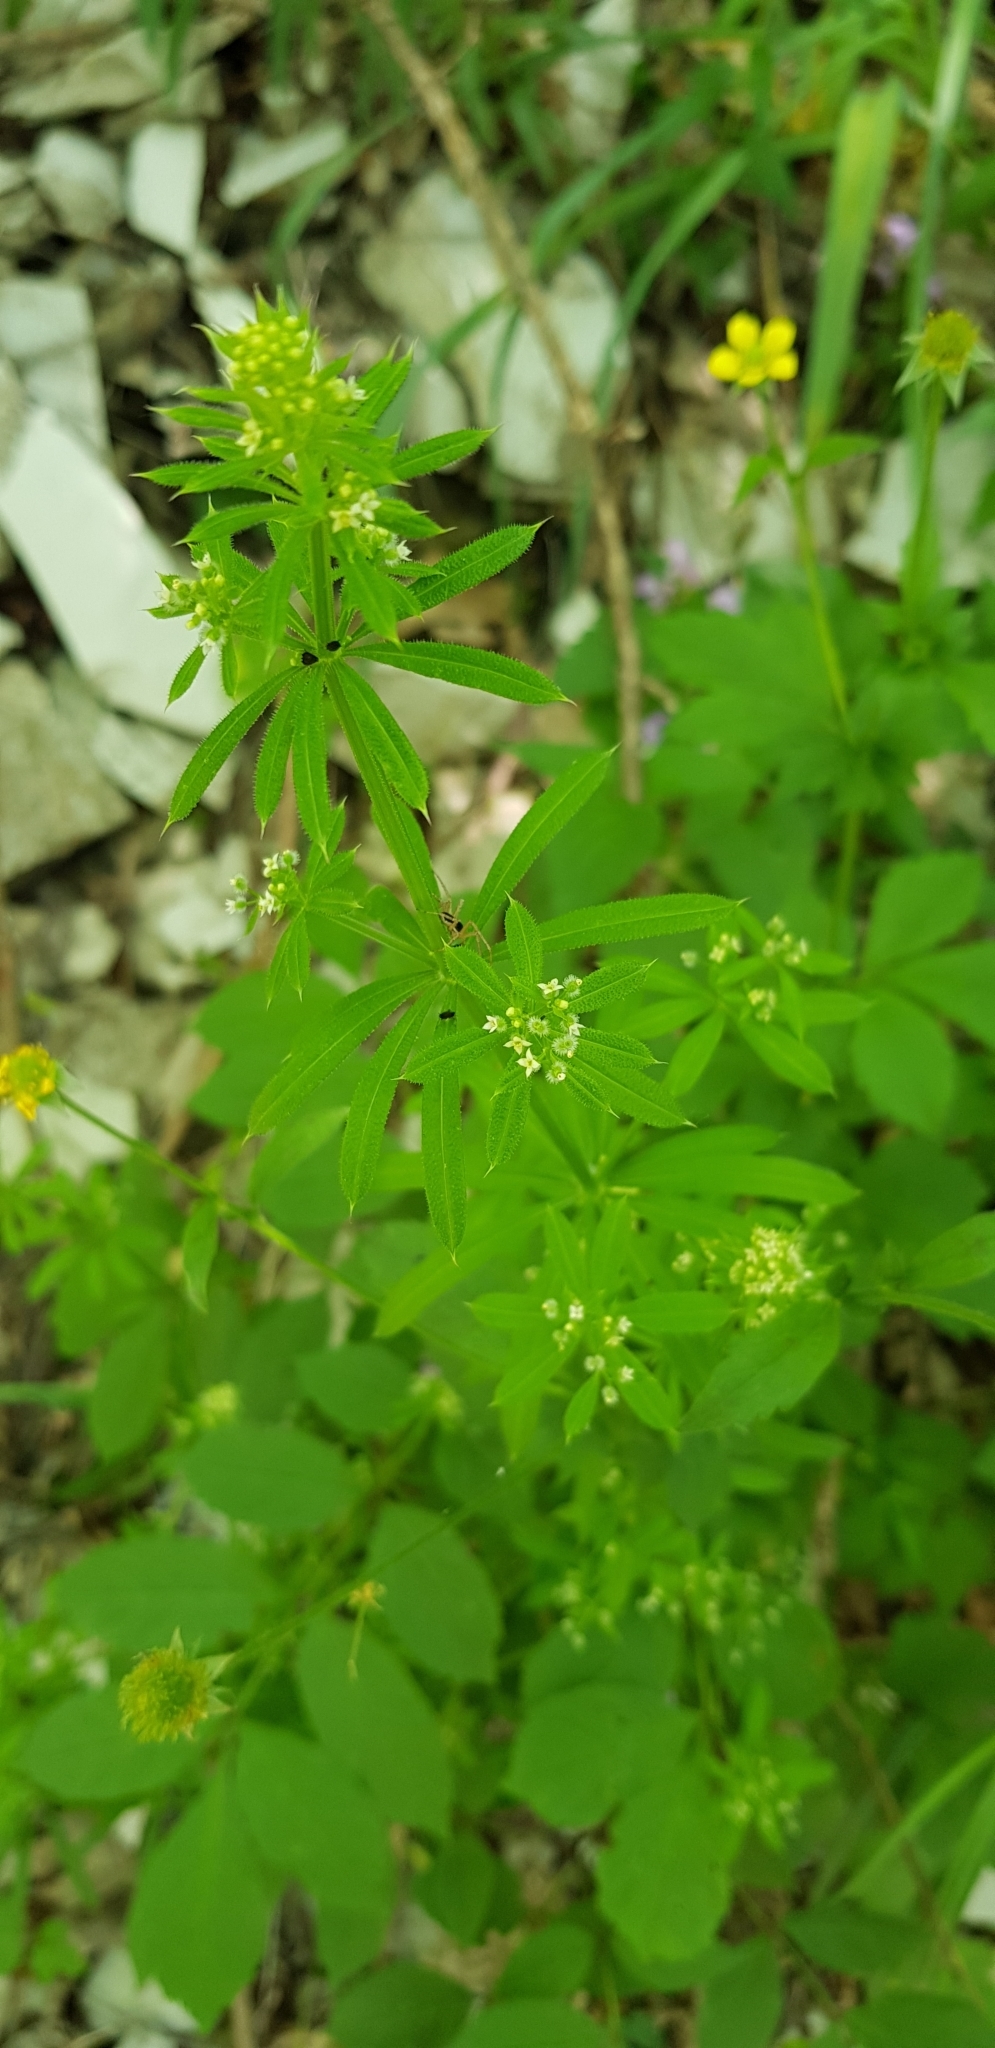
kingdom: Plantae
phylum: Tracheophyta
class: Magnoliopsida
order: Gentianales
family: Rubiaceae
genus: Galium
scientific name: Galium aparine
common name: Cleavers
